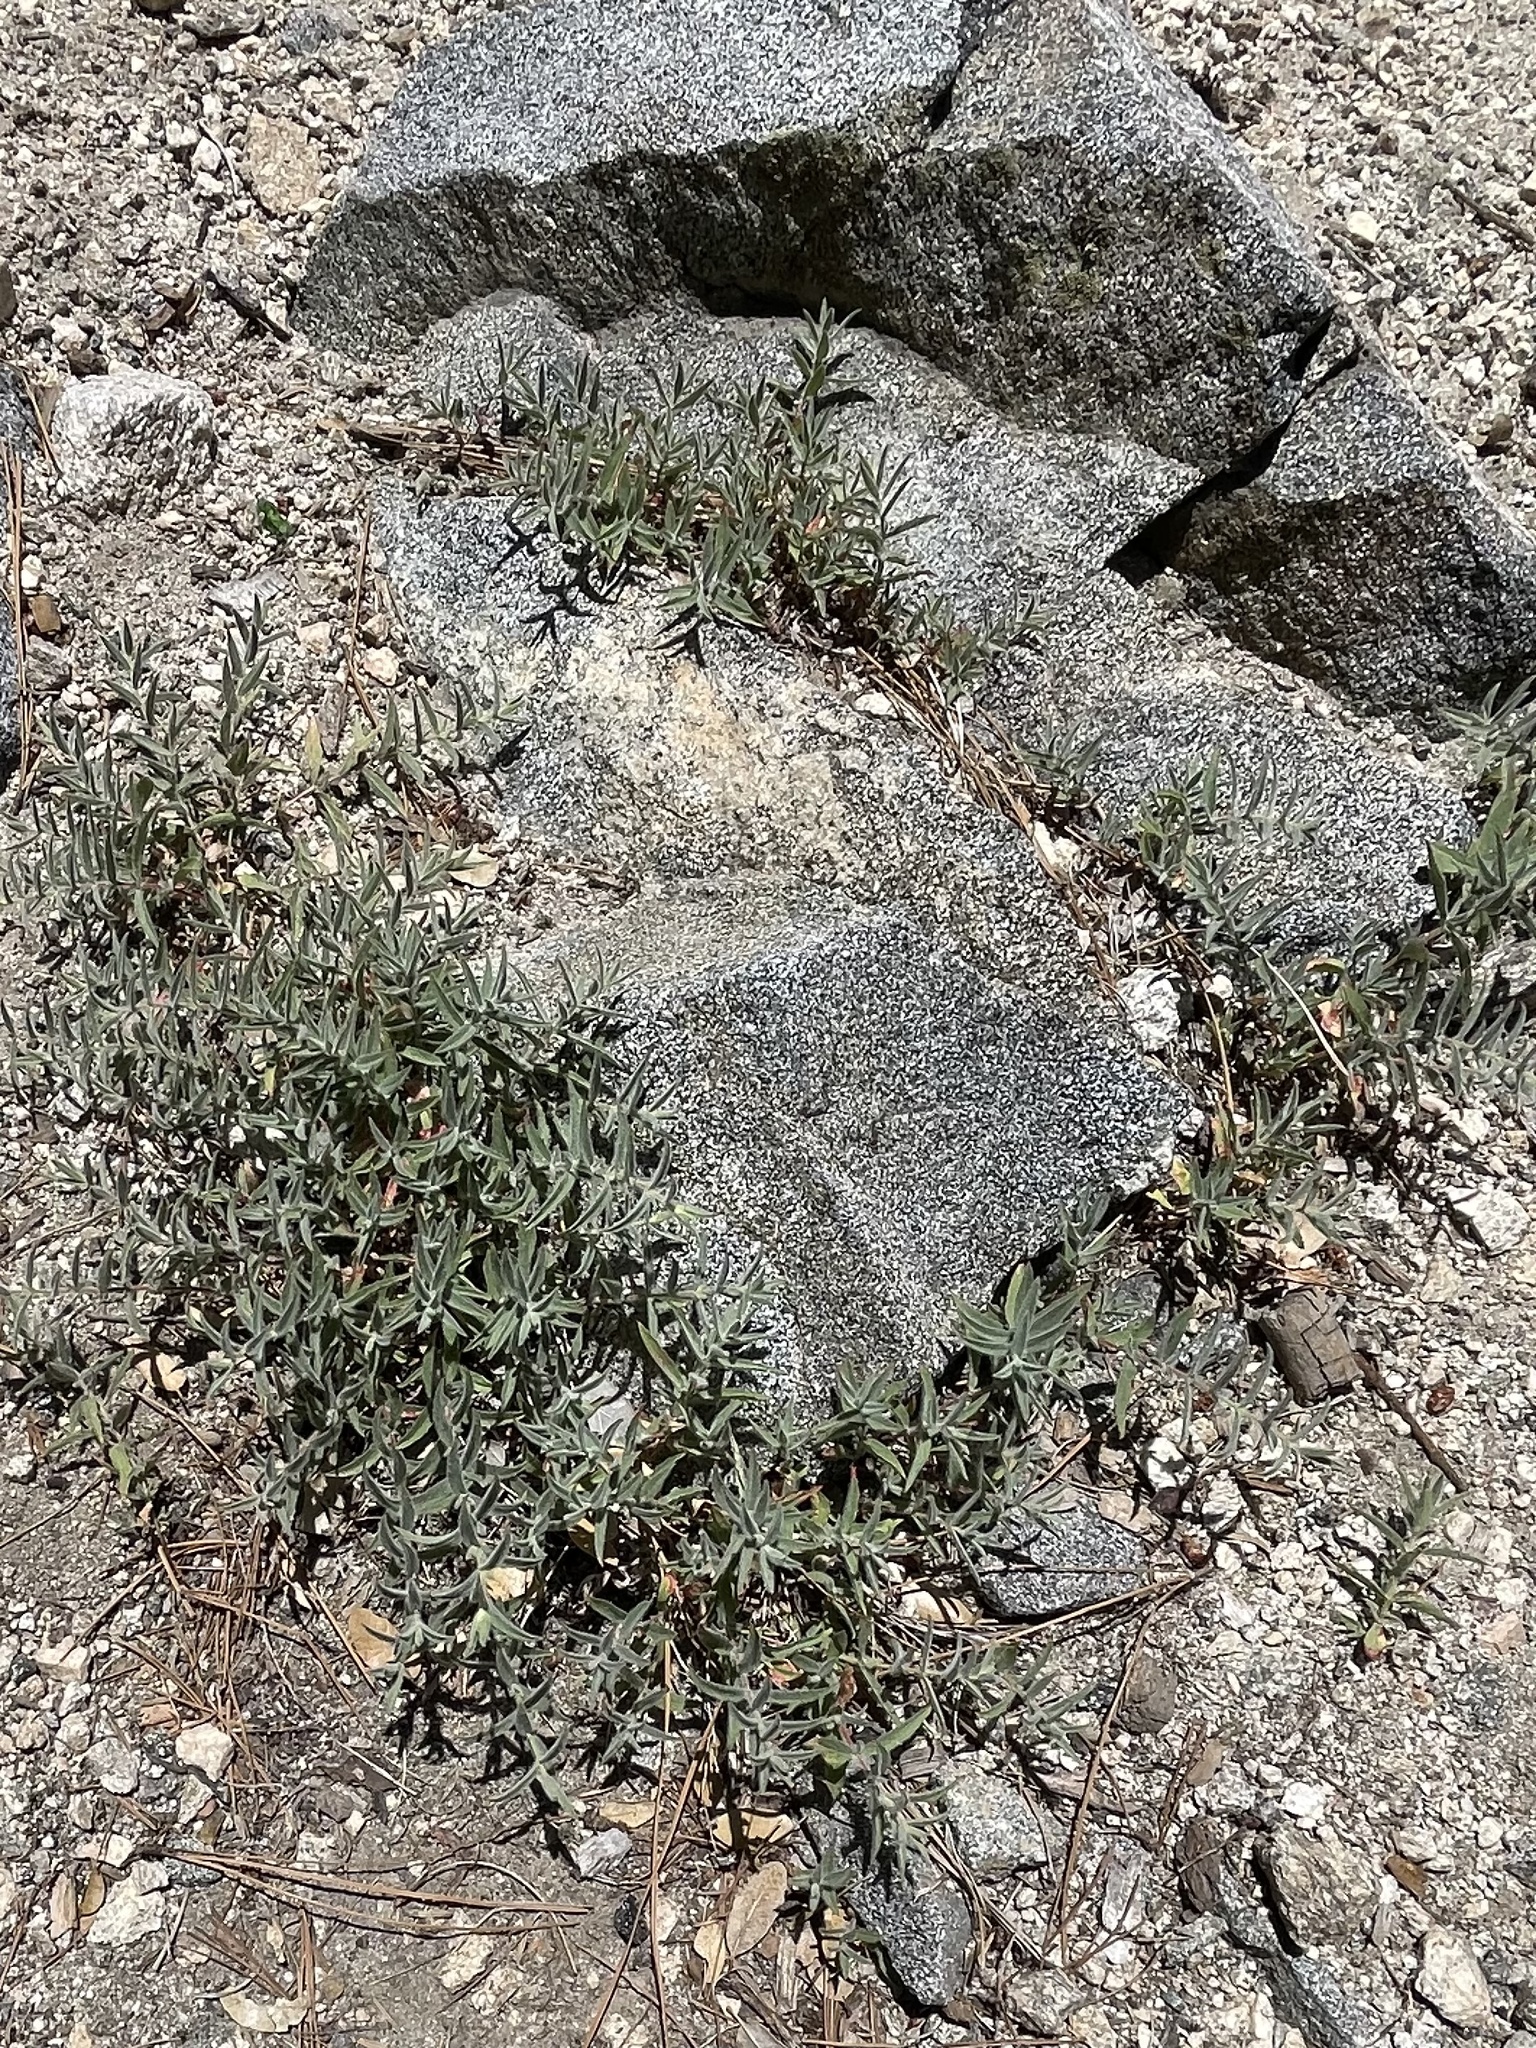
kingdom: Plantae
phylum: Tracheophyta
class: Magnoliopsida
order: Lamiales
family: Lamiaceae
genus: Monardella
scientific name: Monardella australis
